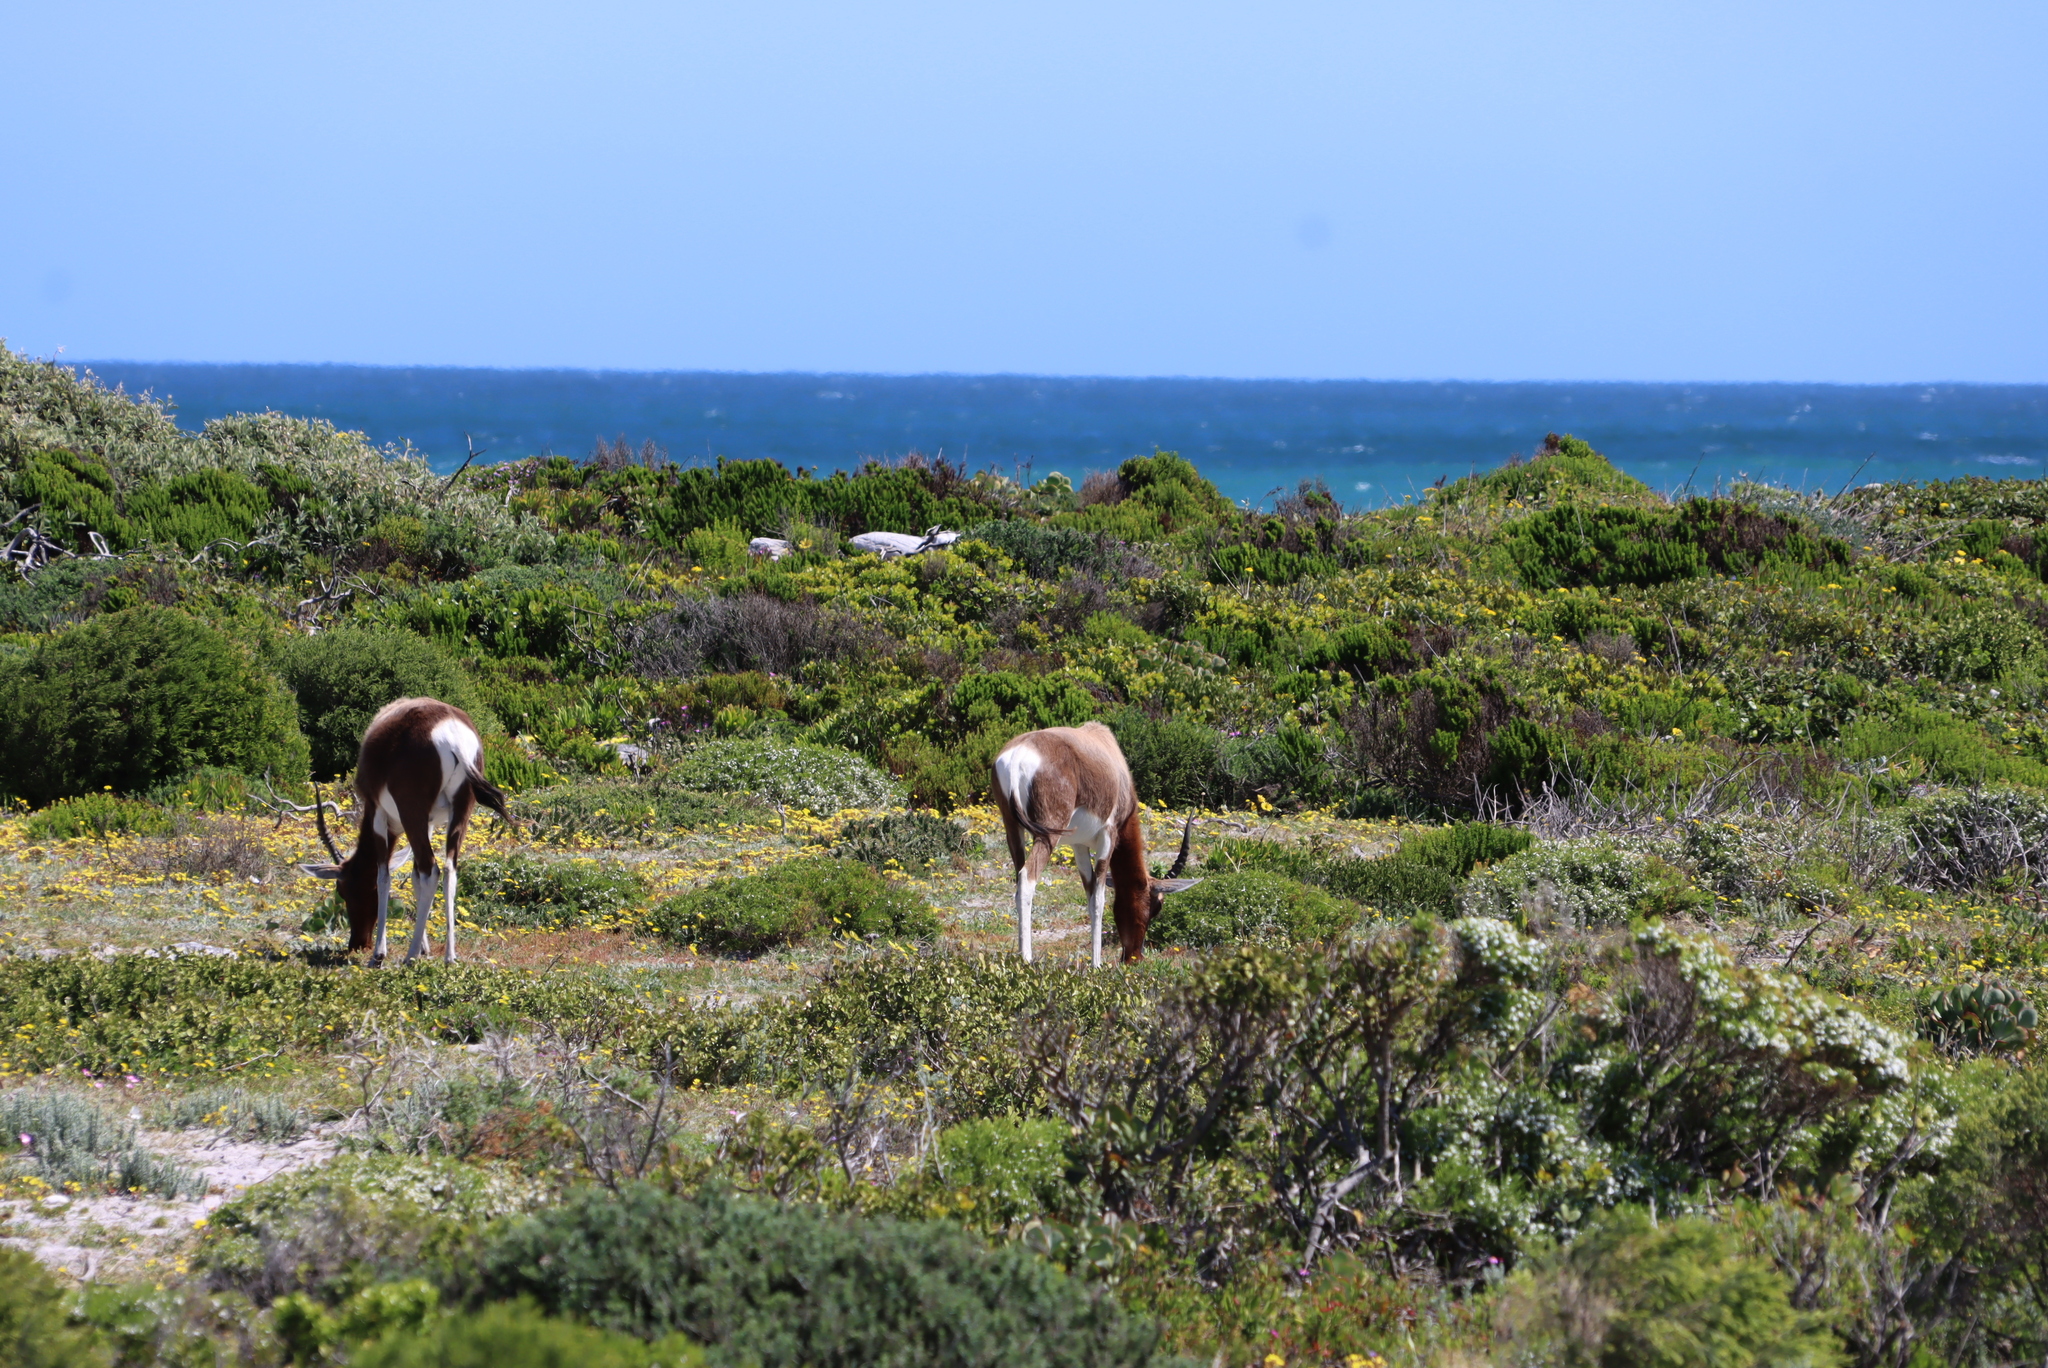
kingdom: Animalia
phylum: Chordata
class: Mammalia
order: Artiodactyla
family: Bovidae
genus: Damaliscus
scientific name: Damaliscus pygargus
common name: Bontebok
